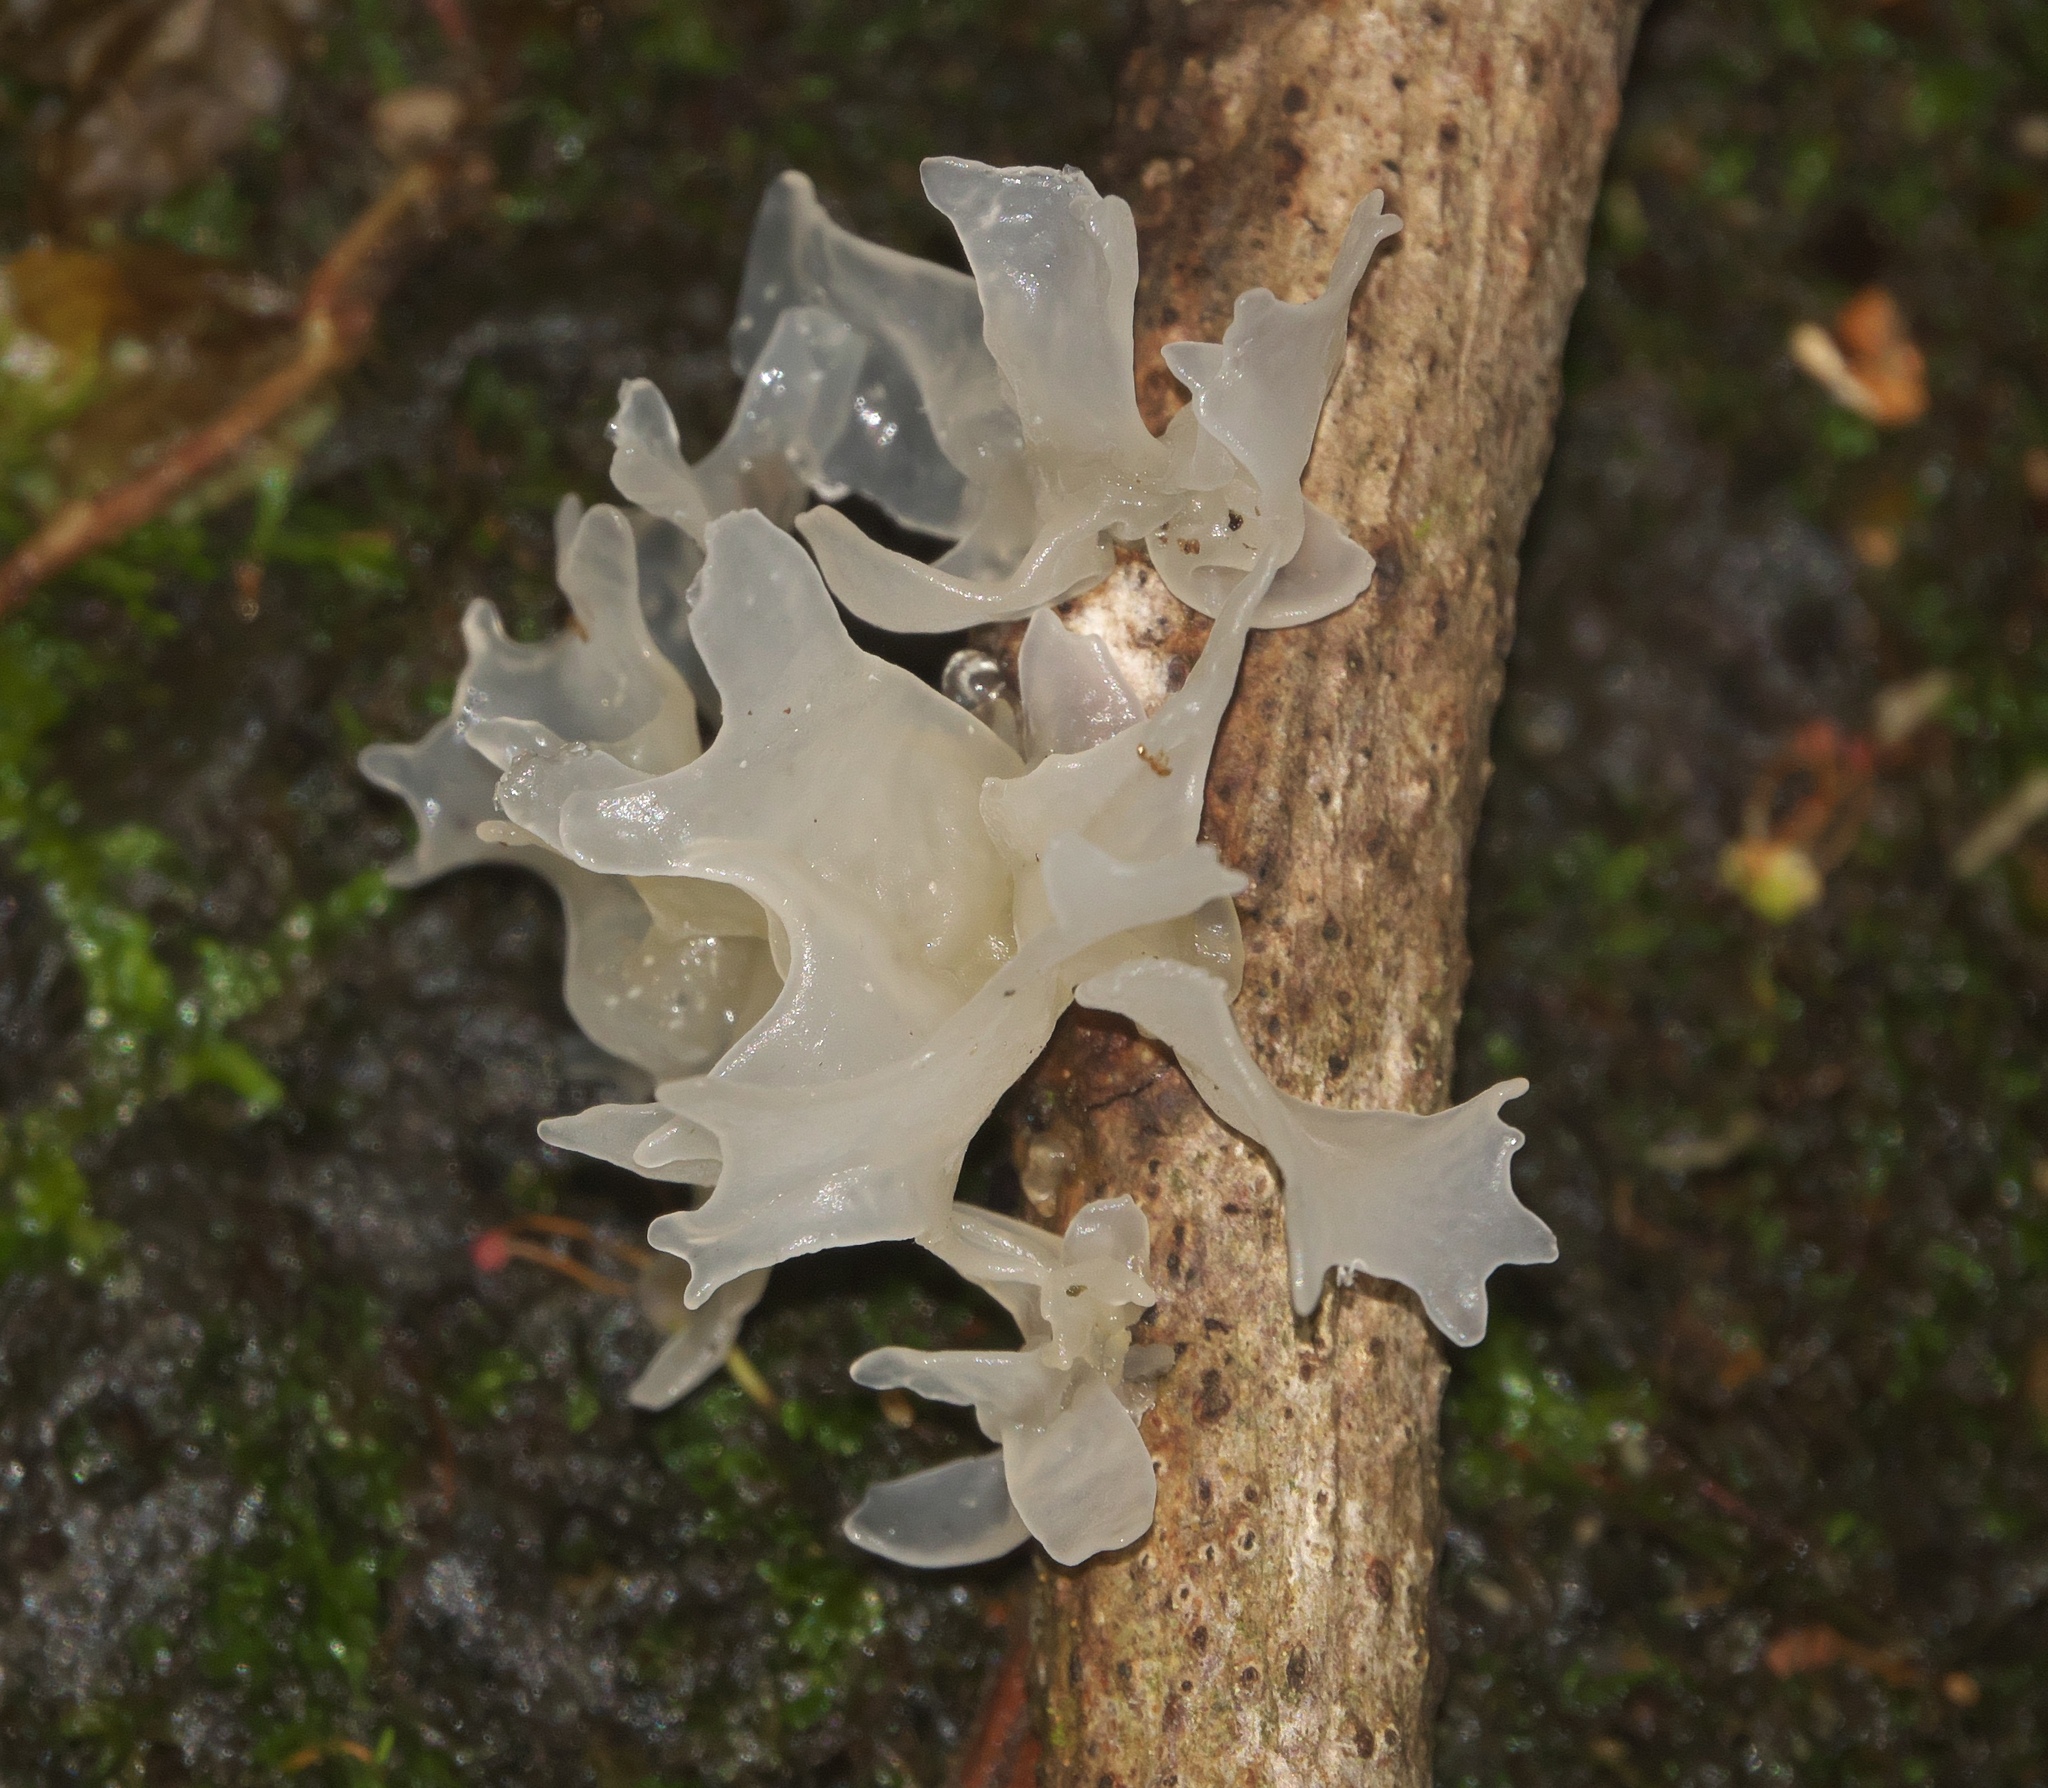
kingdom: Fungi
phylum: Basidiomycota
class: Tremellomycetes
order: Tremellales
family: Tremellaceae
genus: Tremella
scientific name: Tremella fuciformis
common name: Snow fungus
